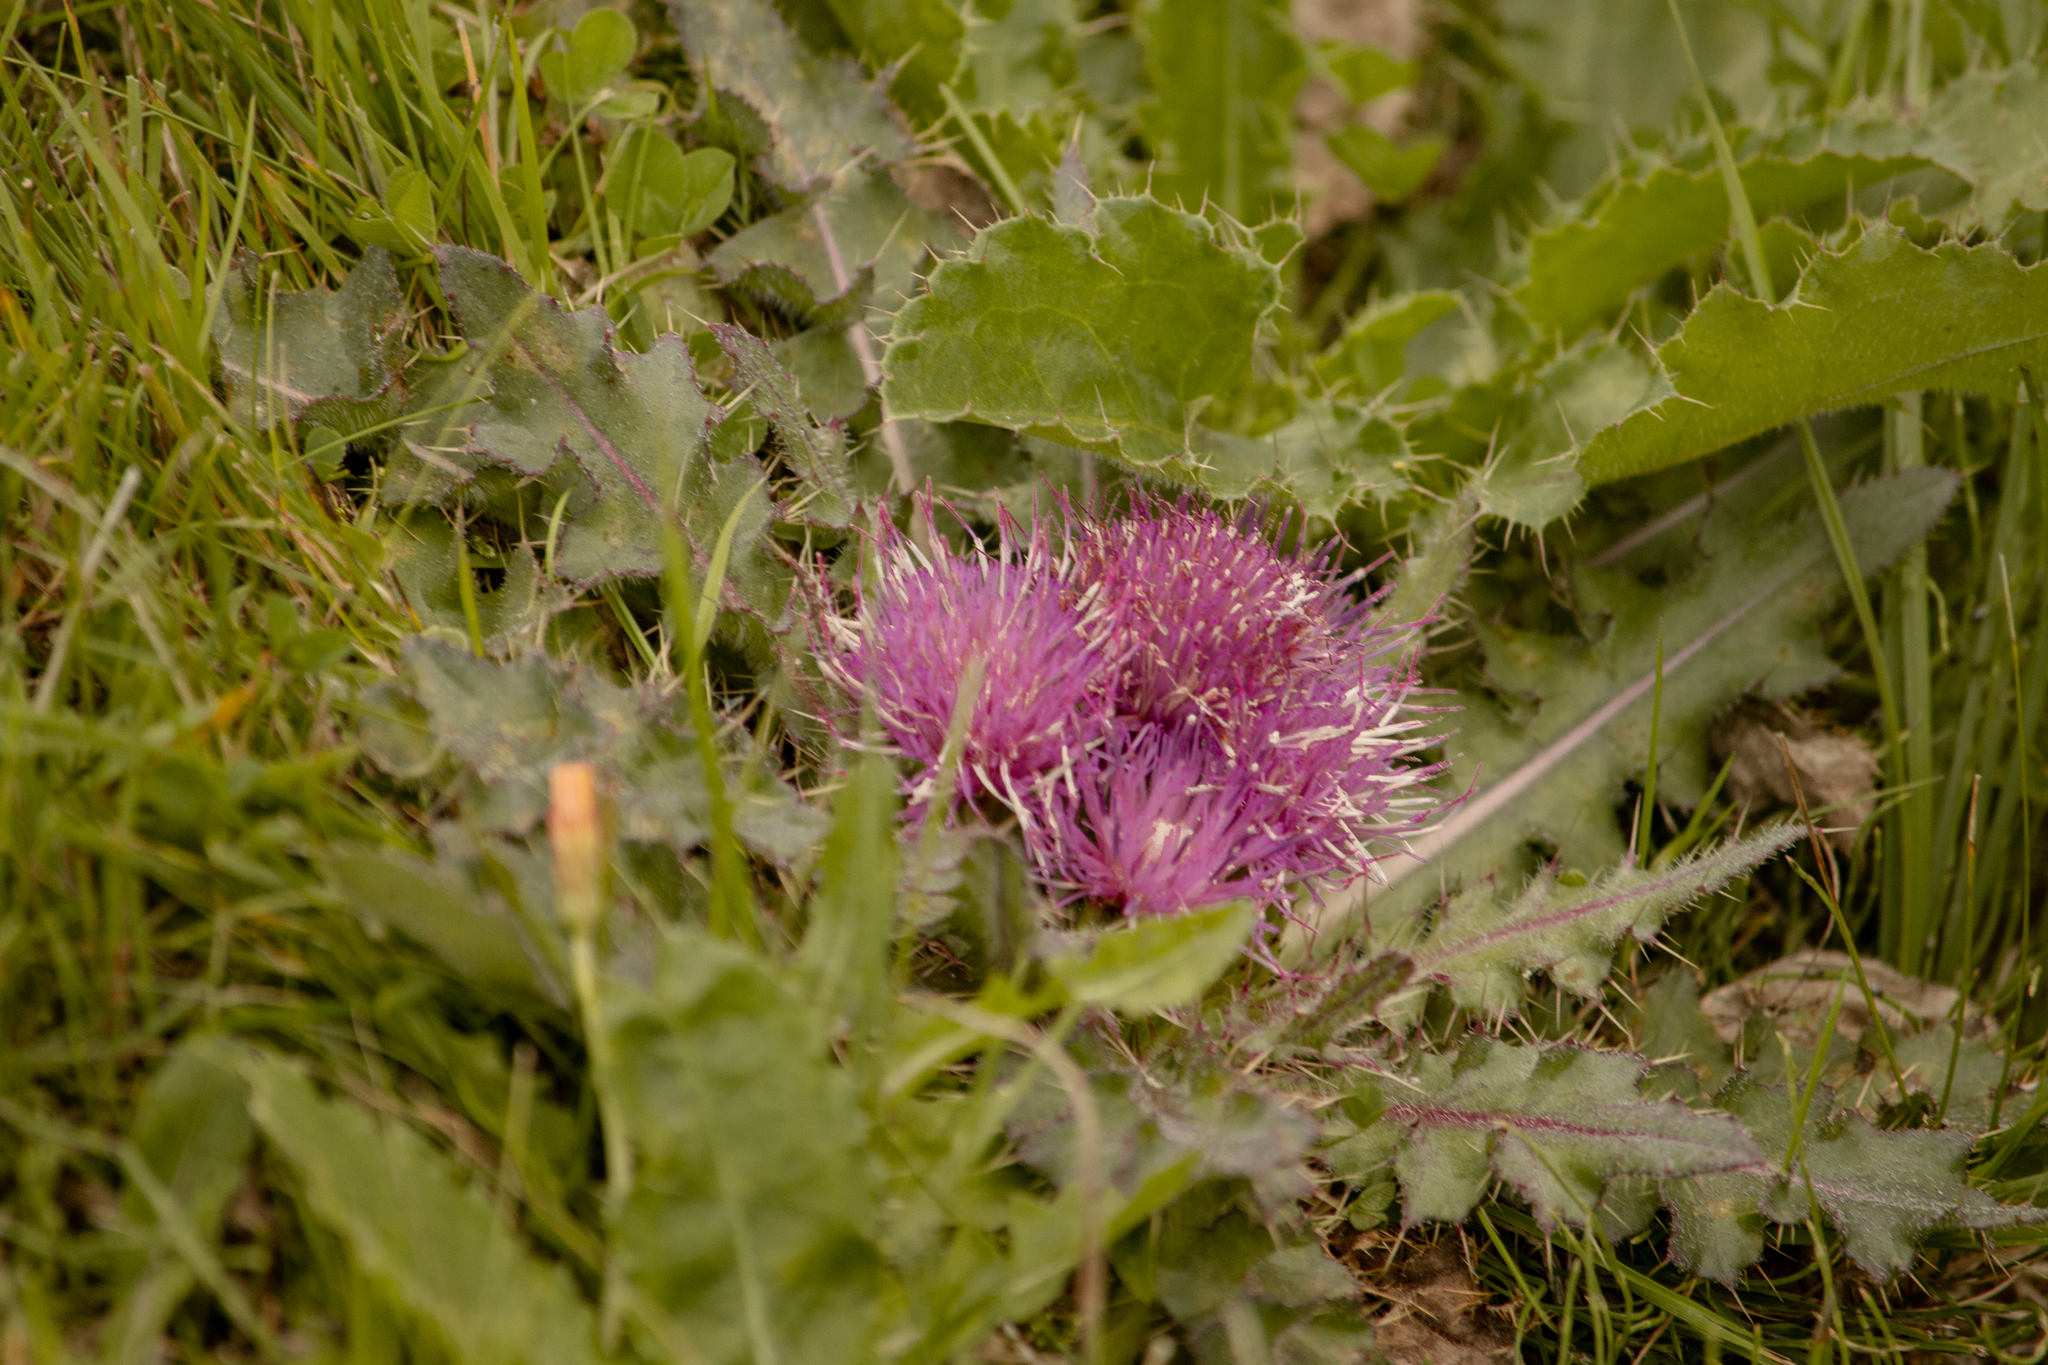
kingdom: Plantae
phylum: Tracheophyta
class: Magnoliopsida
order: Asterales
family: Asteraceae
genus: Cirsium
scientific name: Cirsium esculentum
